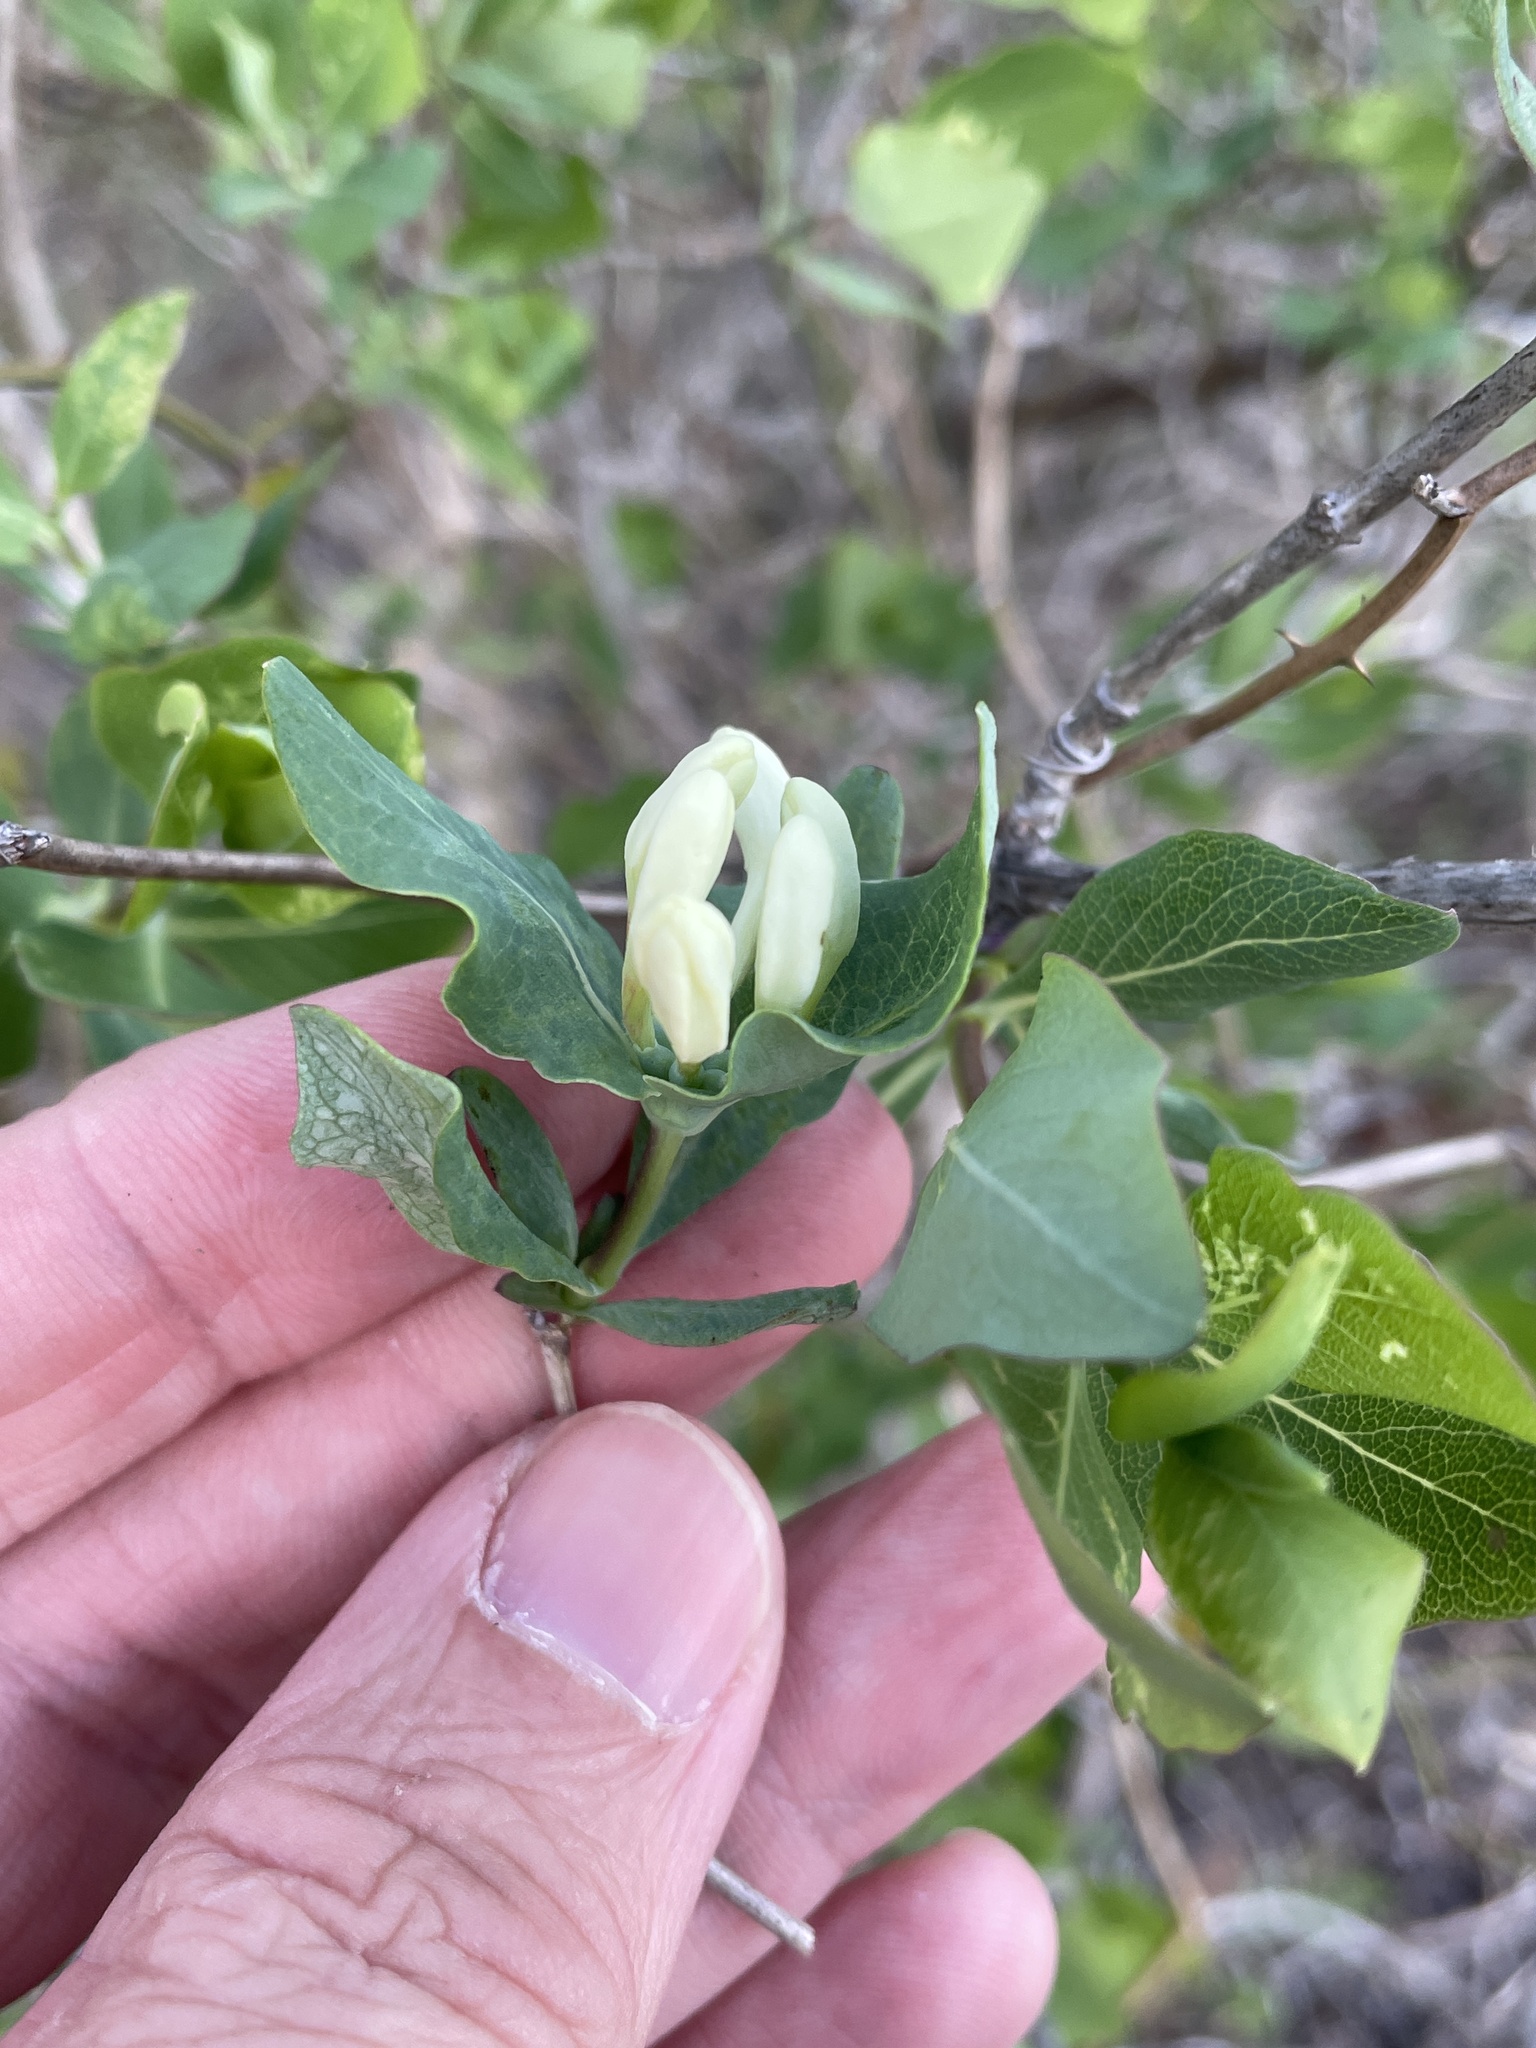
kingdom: Plantae
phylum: Tracheophyta
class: Magnoliopsida
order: Dipsacales
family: Caprifoliaceae
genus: Lonicera
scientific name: Lonicera albiflora
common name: White honeysuckle
